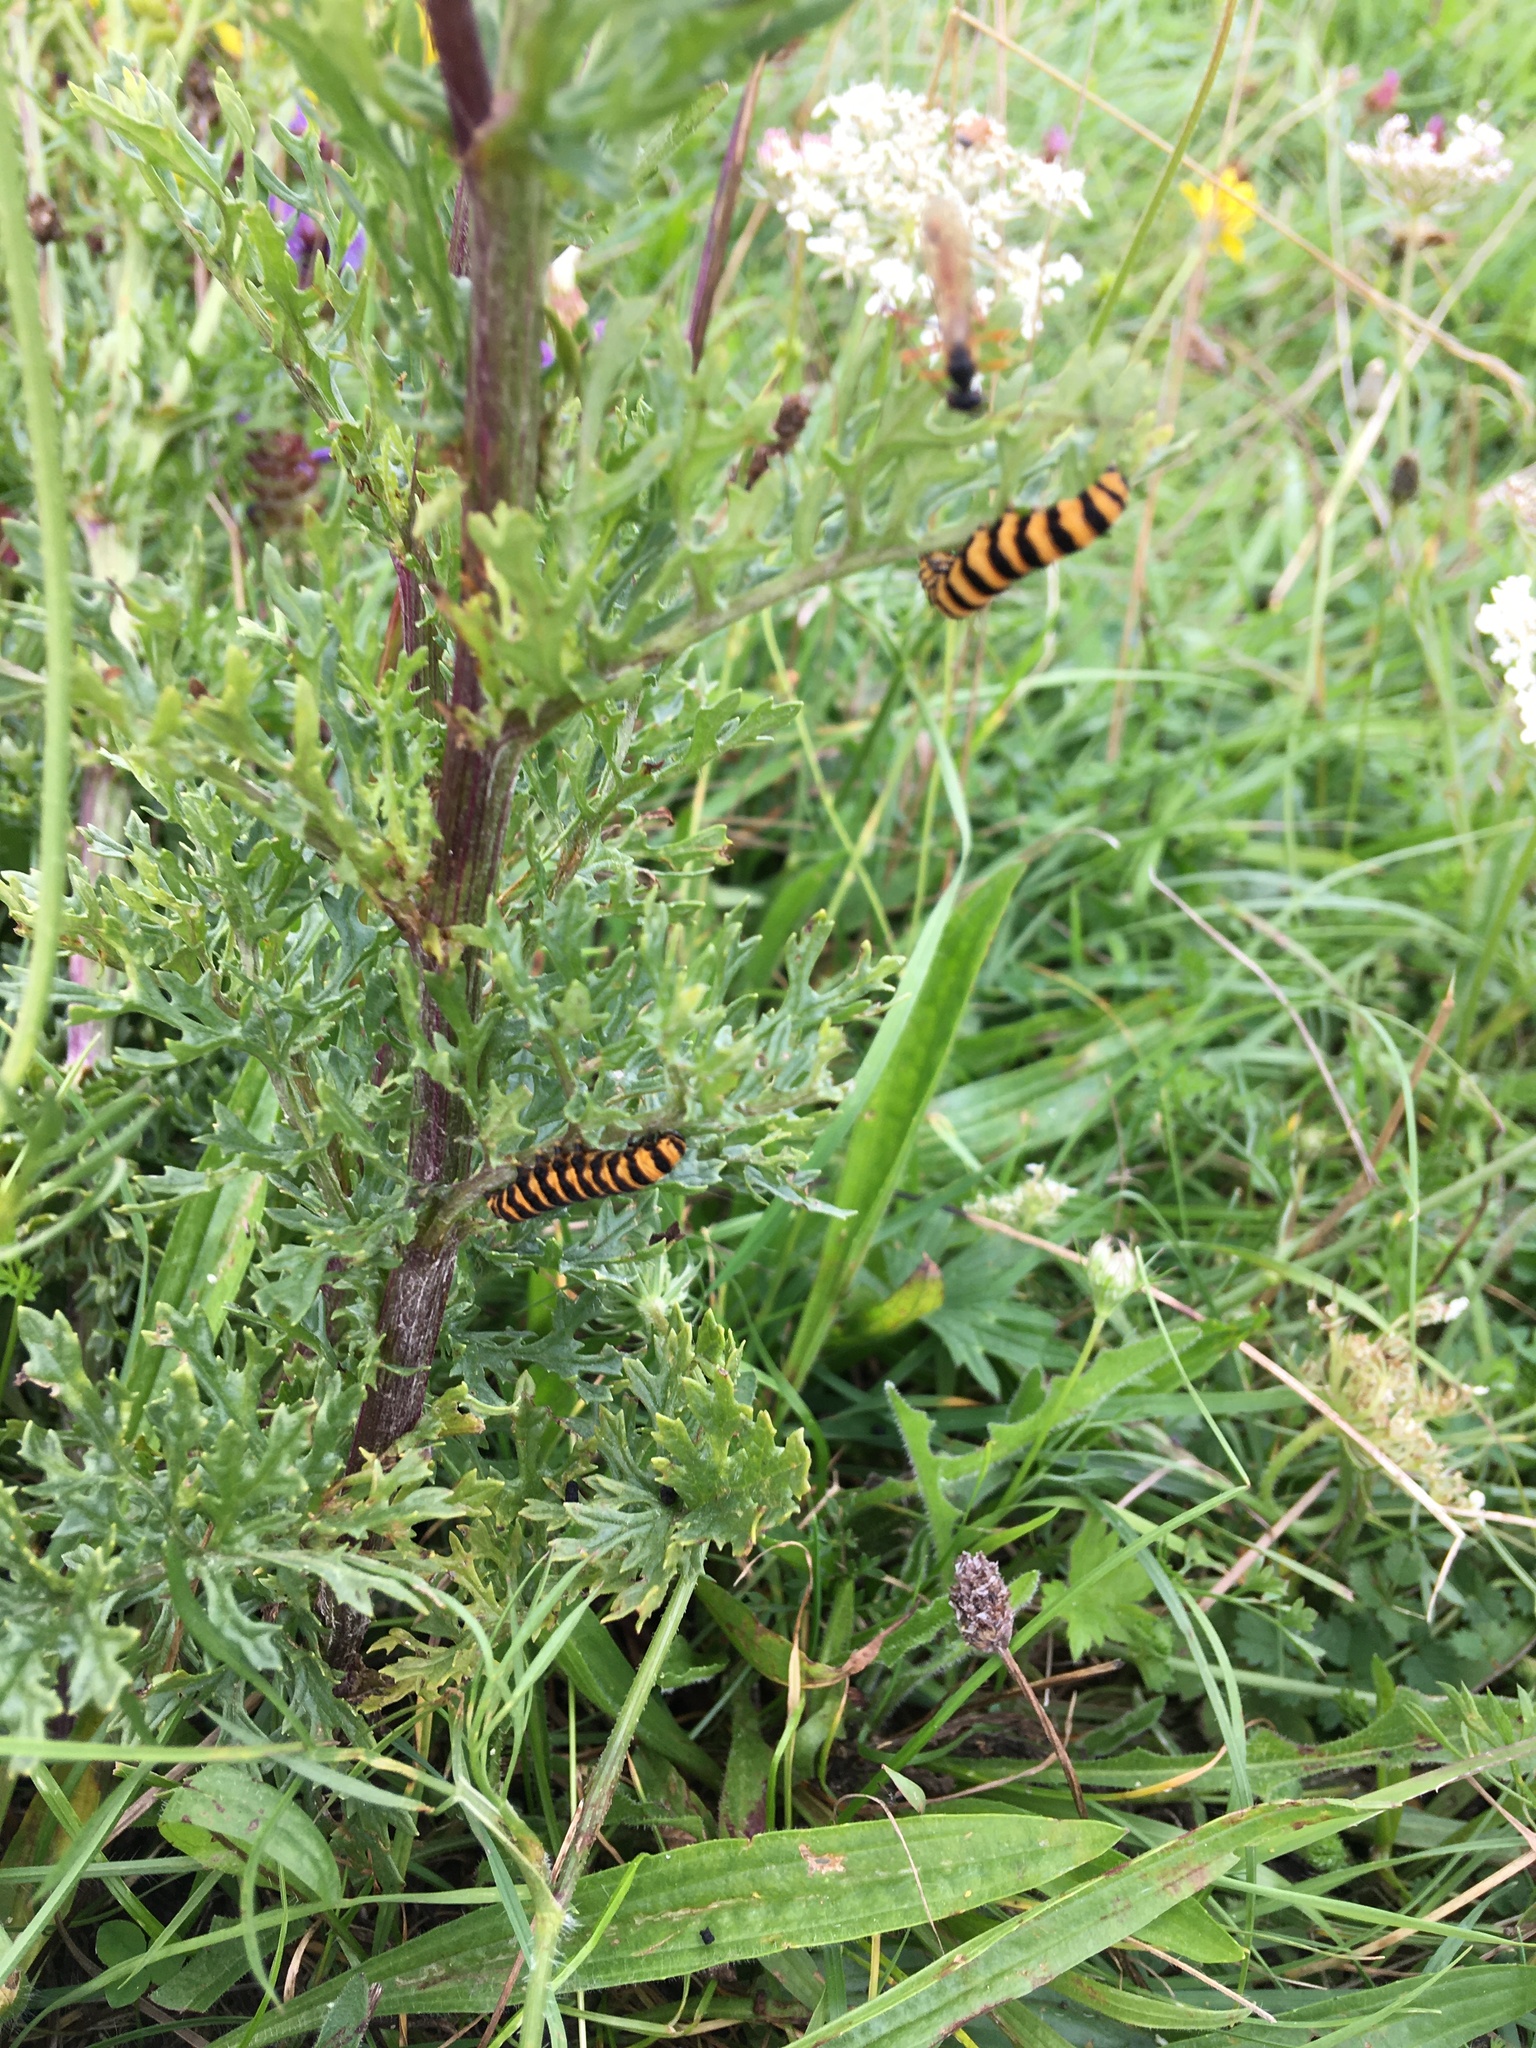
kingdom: Animalia
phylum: Arthropoda
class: Insecta
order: Lepidoptera
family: Erebidae
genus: Tyria
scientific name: Tyria jacobaeae
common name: Cinnabar
